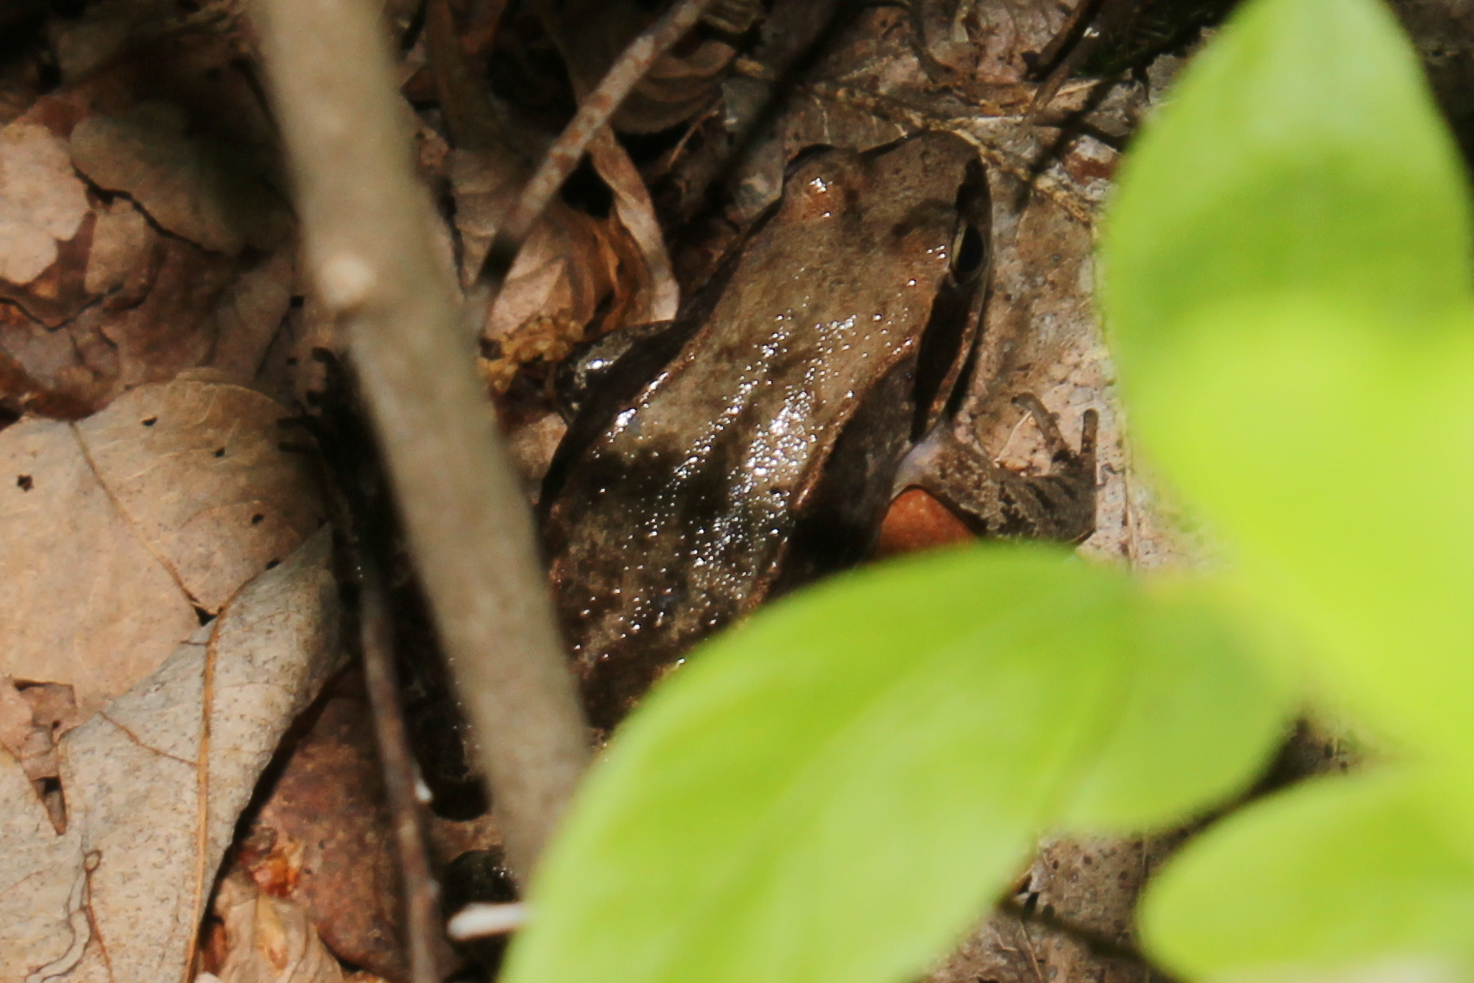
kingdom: Animalia
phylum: Chordata
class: Amphibia
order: Anura
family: Ranidae
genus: Lithobates
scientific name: Lithobates sylvaticus
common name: Wood frog
